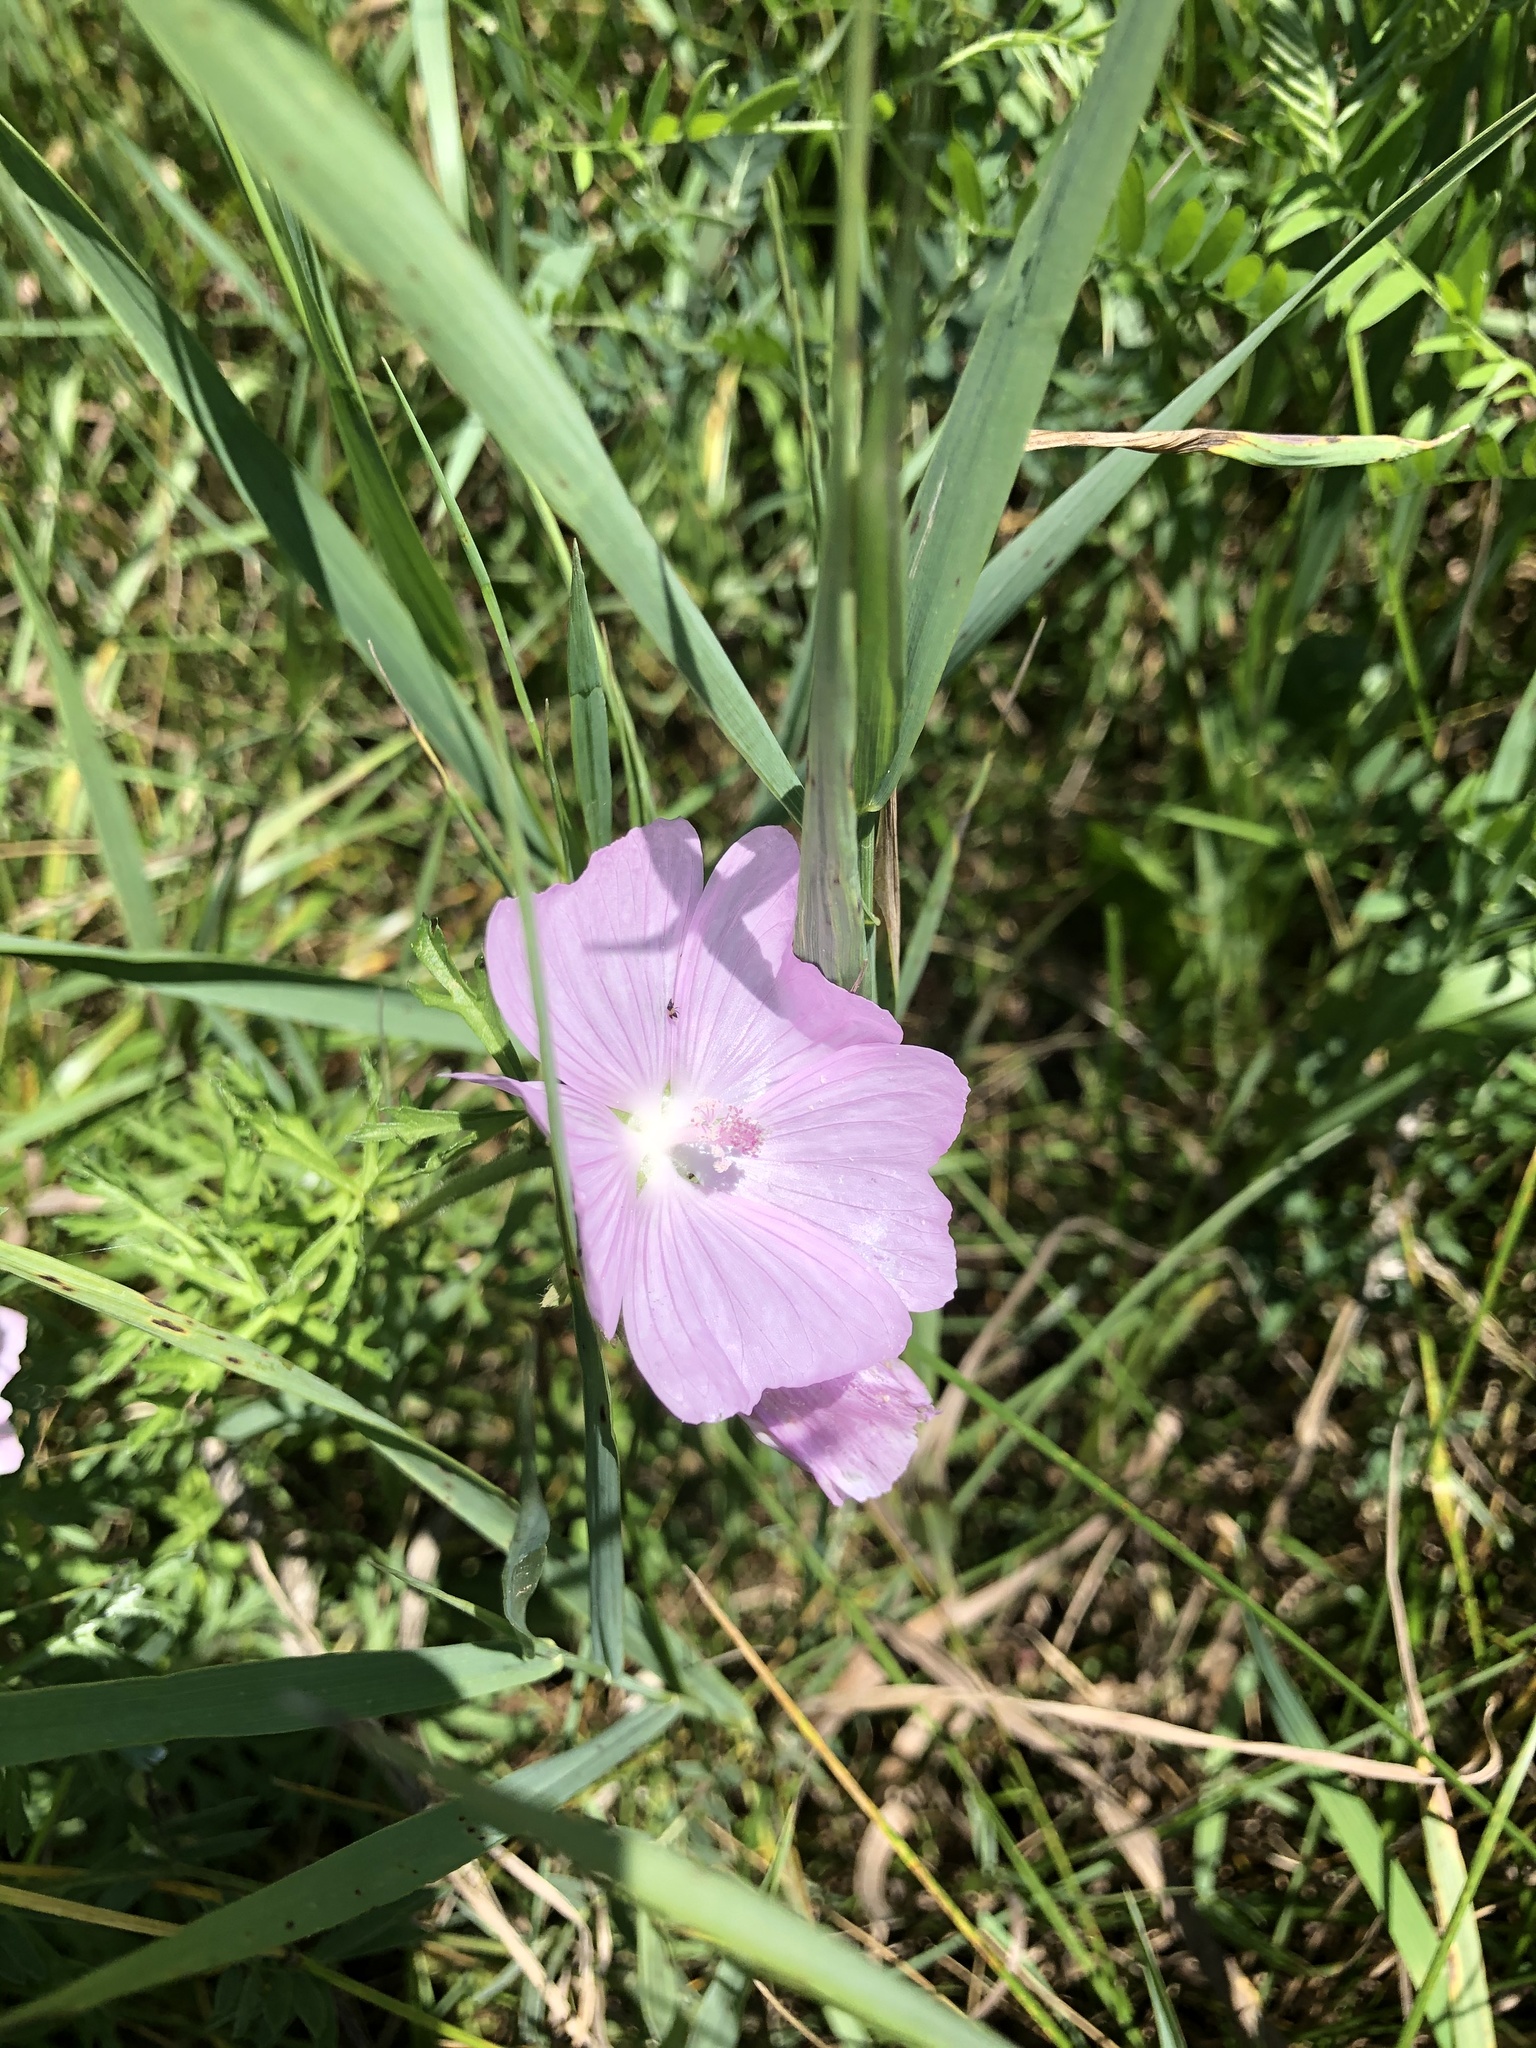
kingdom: Plantae
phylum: Tracheophyta
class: Magnoliopsida
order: Malvales
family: Malvaceae
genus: Malva
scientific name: Malva moschata
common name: Musk mallow
